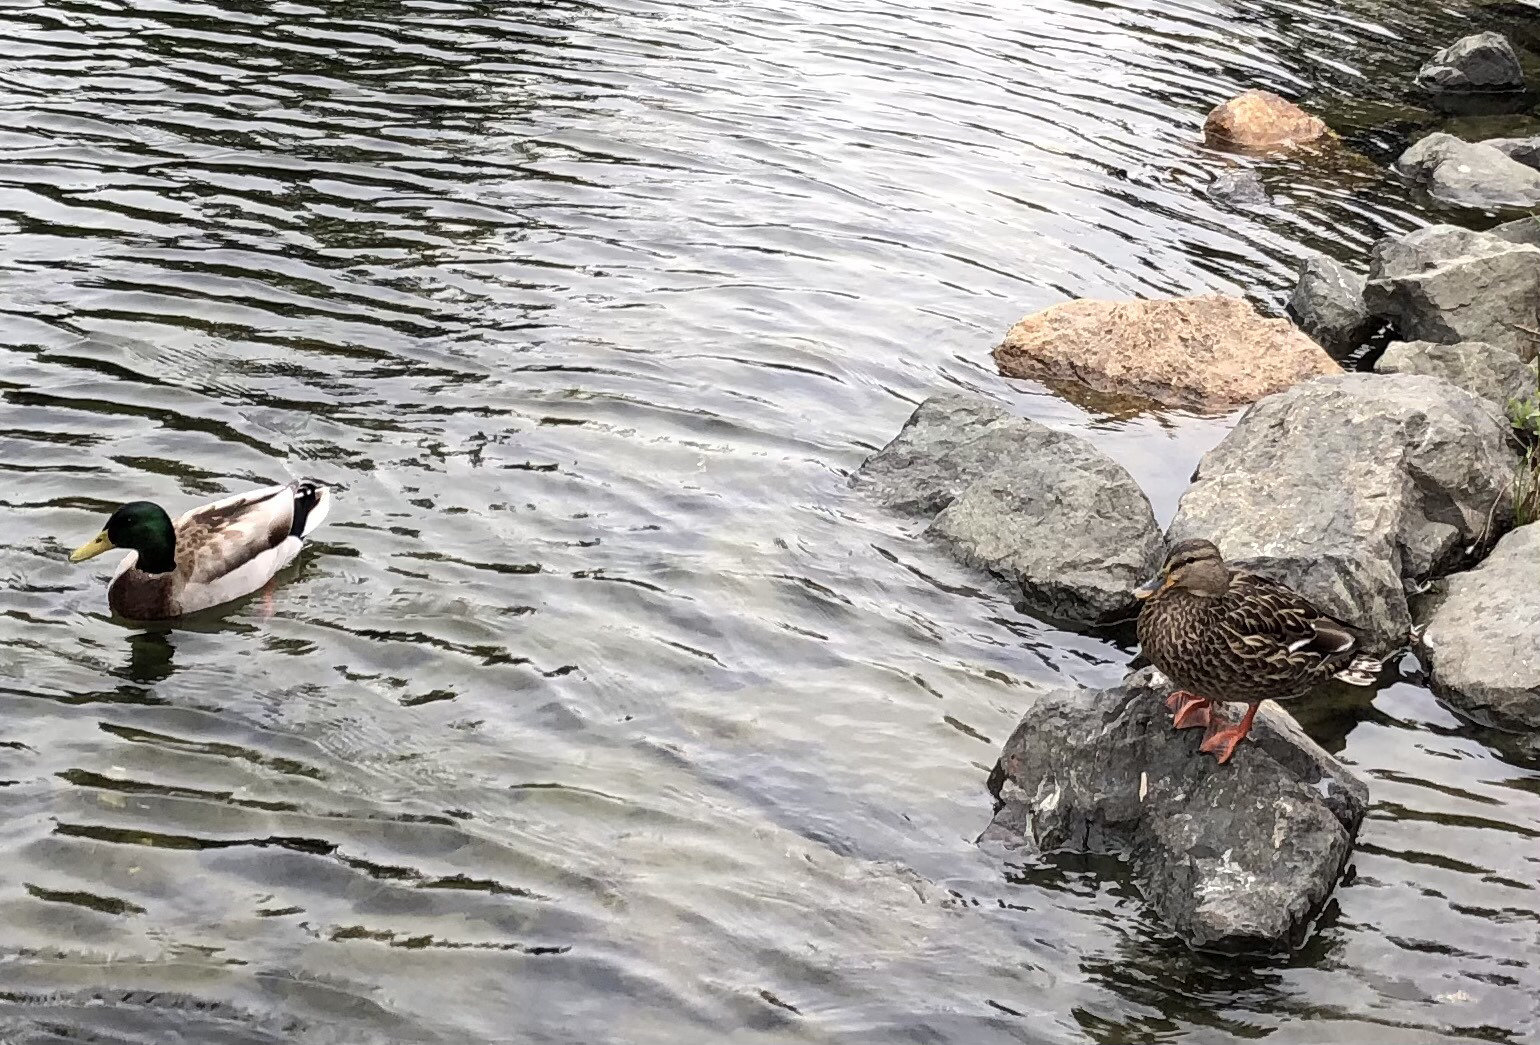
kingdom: Animalia
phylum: Chordata
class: Aves
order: Anseriformes
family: Anatidae
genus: Anas
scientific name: Anas platyrhynchos
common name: Mallard
